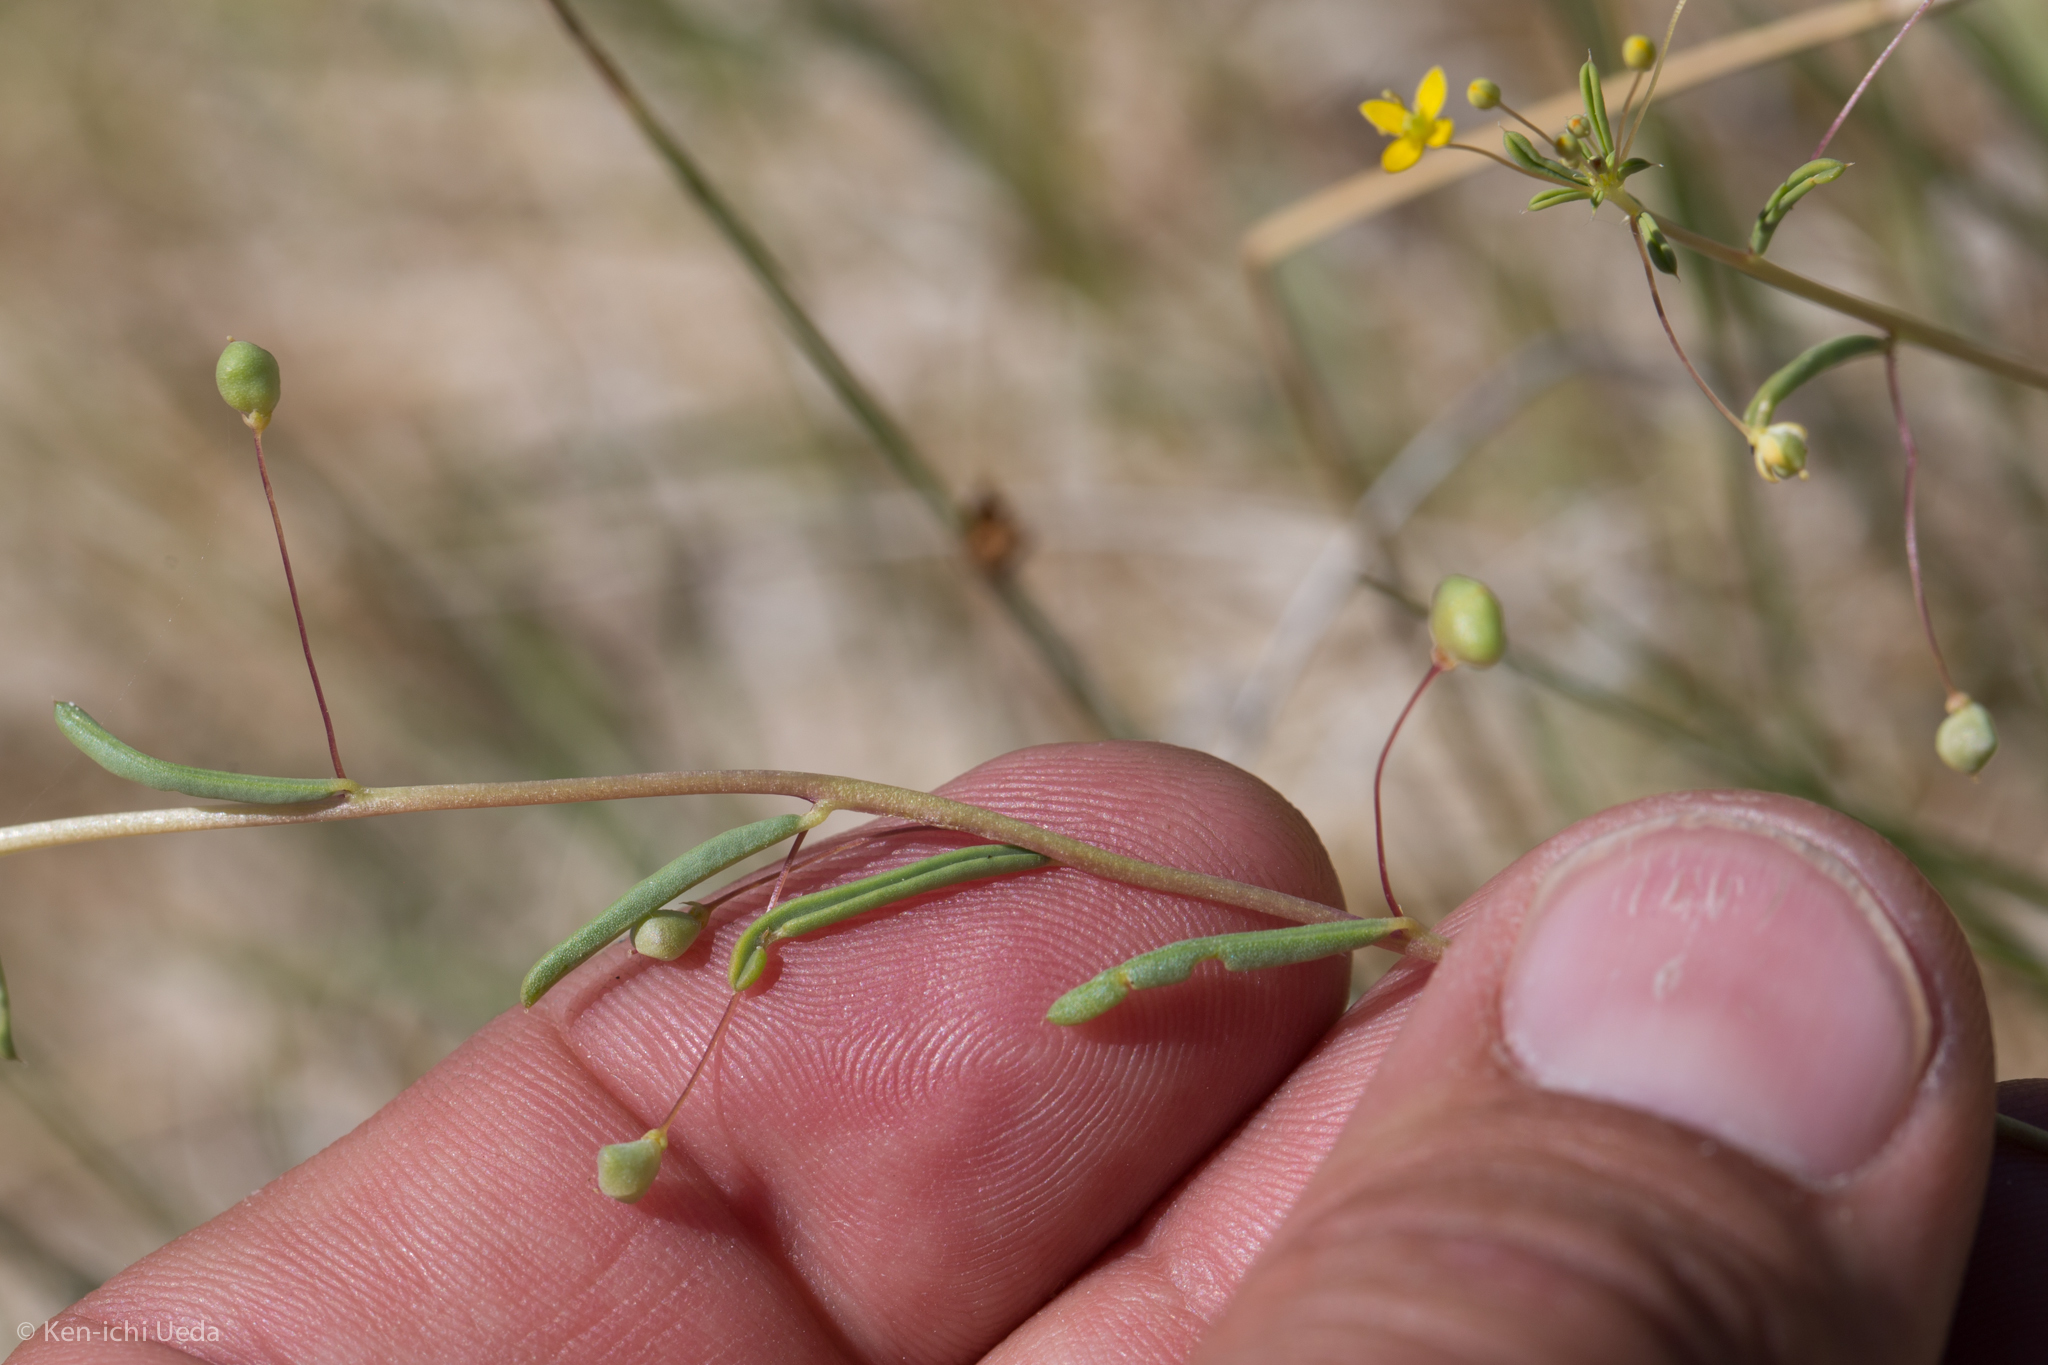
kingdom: Plantae
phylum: Tracheophyta
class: Magnoliopsida
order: Brassicales
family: Cleomaceae
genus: Cleomella
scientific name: Cleomella parviflora
